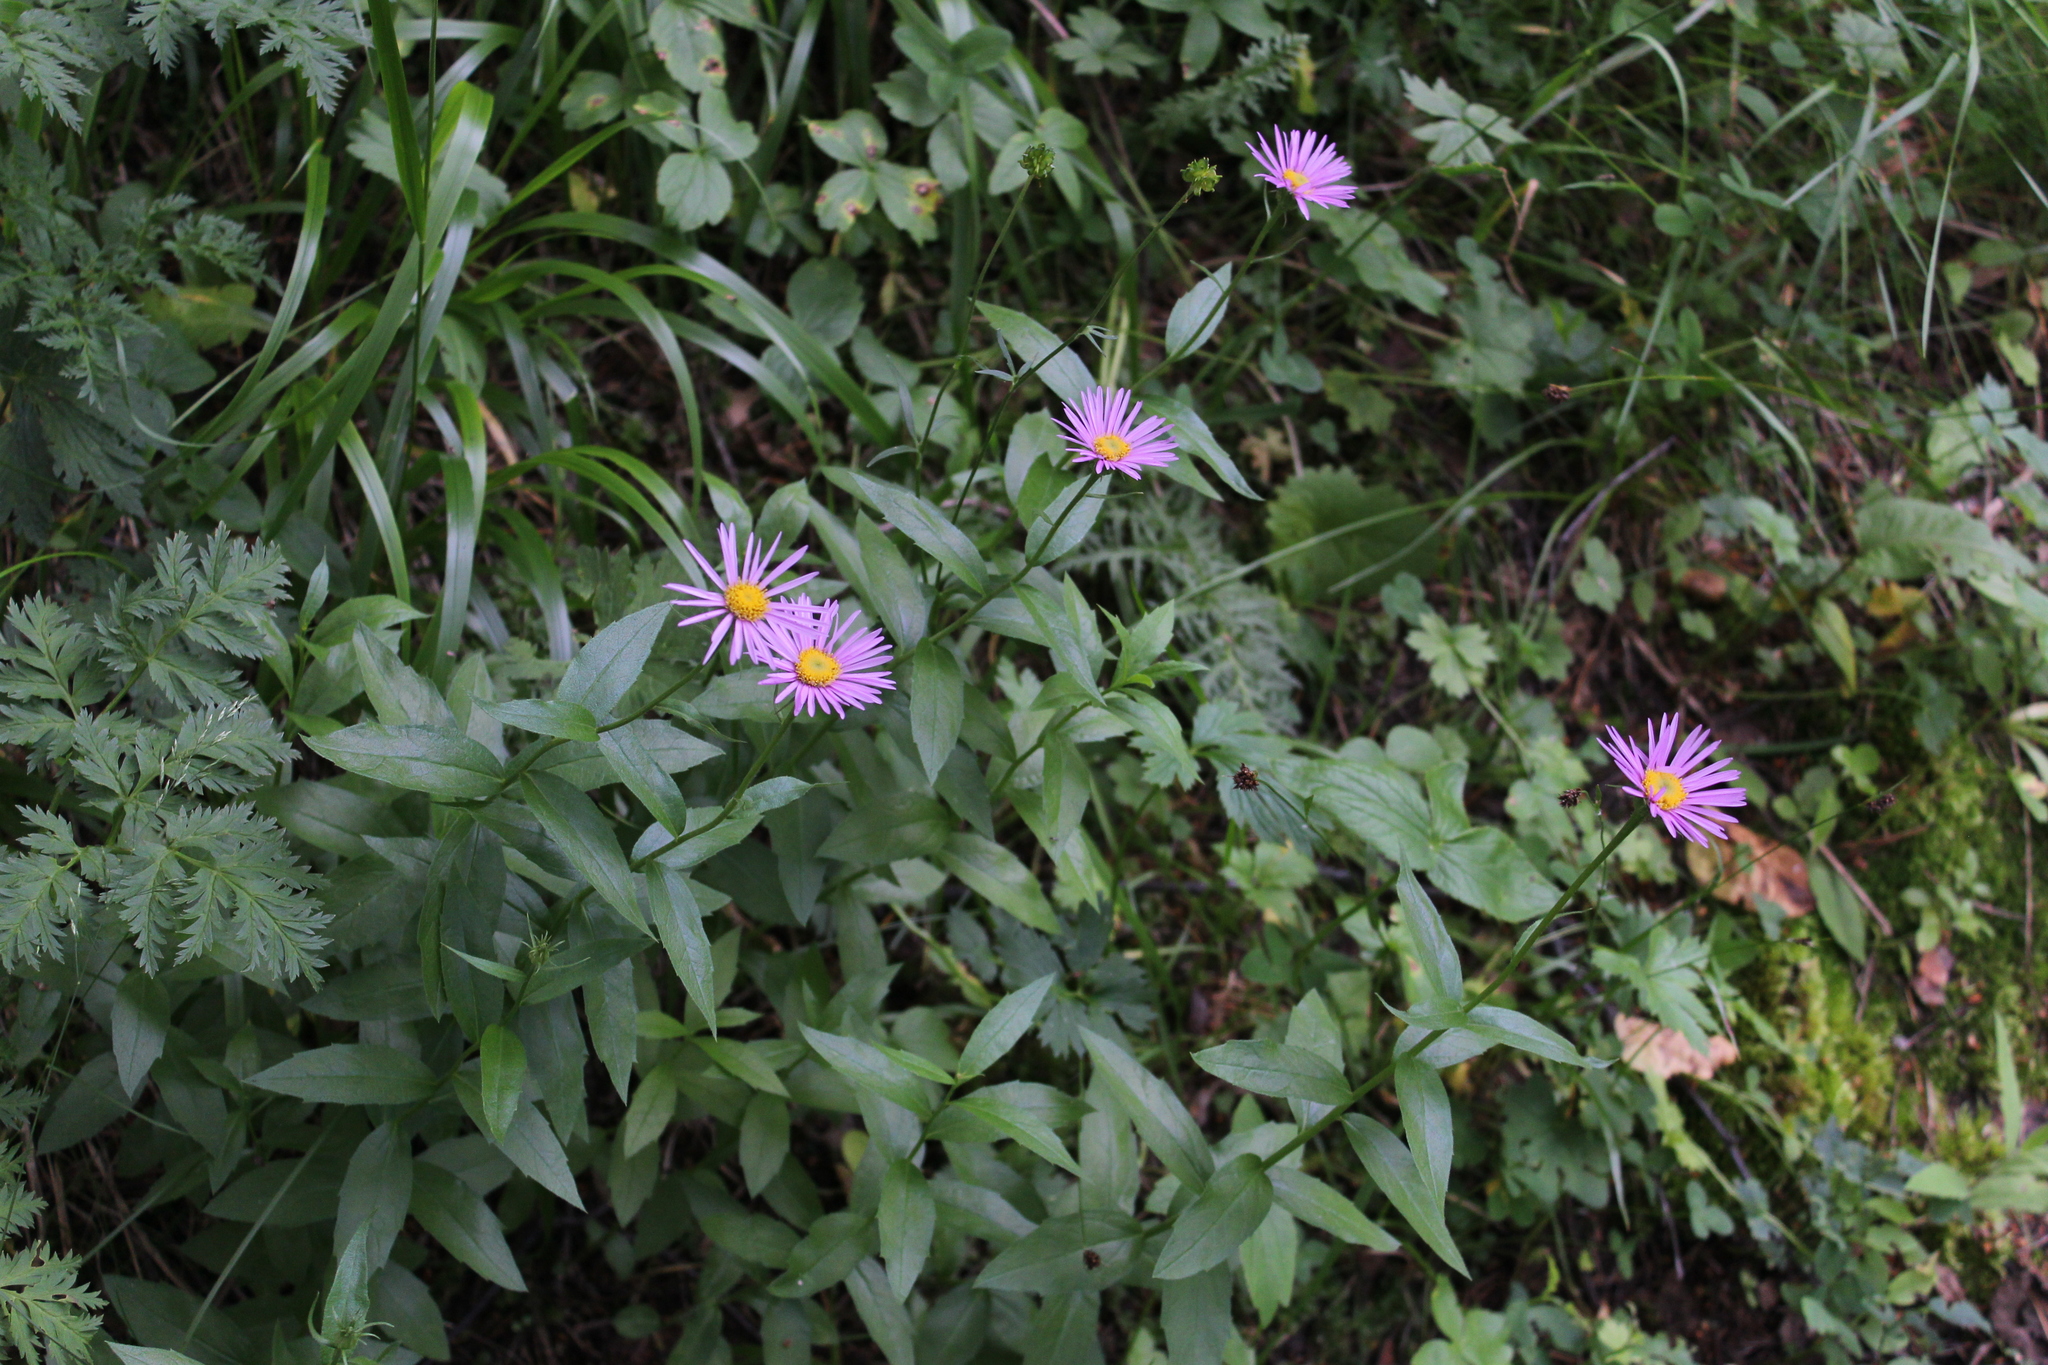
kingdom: Plantae
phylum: Tracheophyta
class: Magnoliopsida
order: Asterales
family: Asteraceae
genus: Kemulariella
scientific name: Kemulariella caucasica
